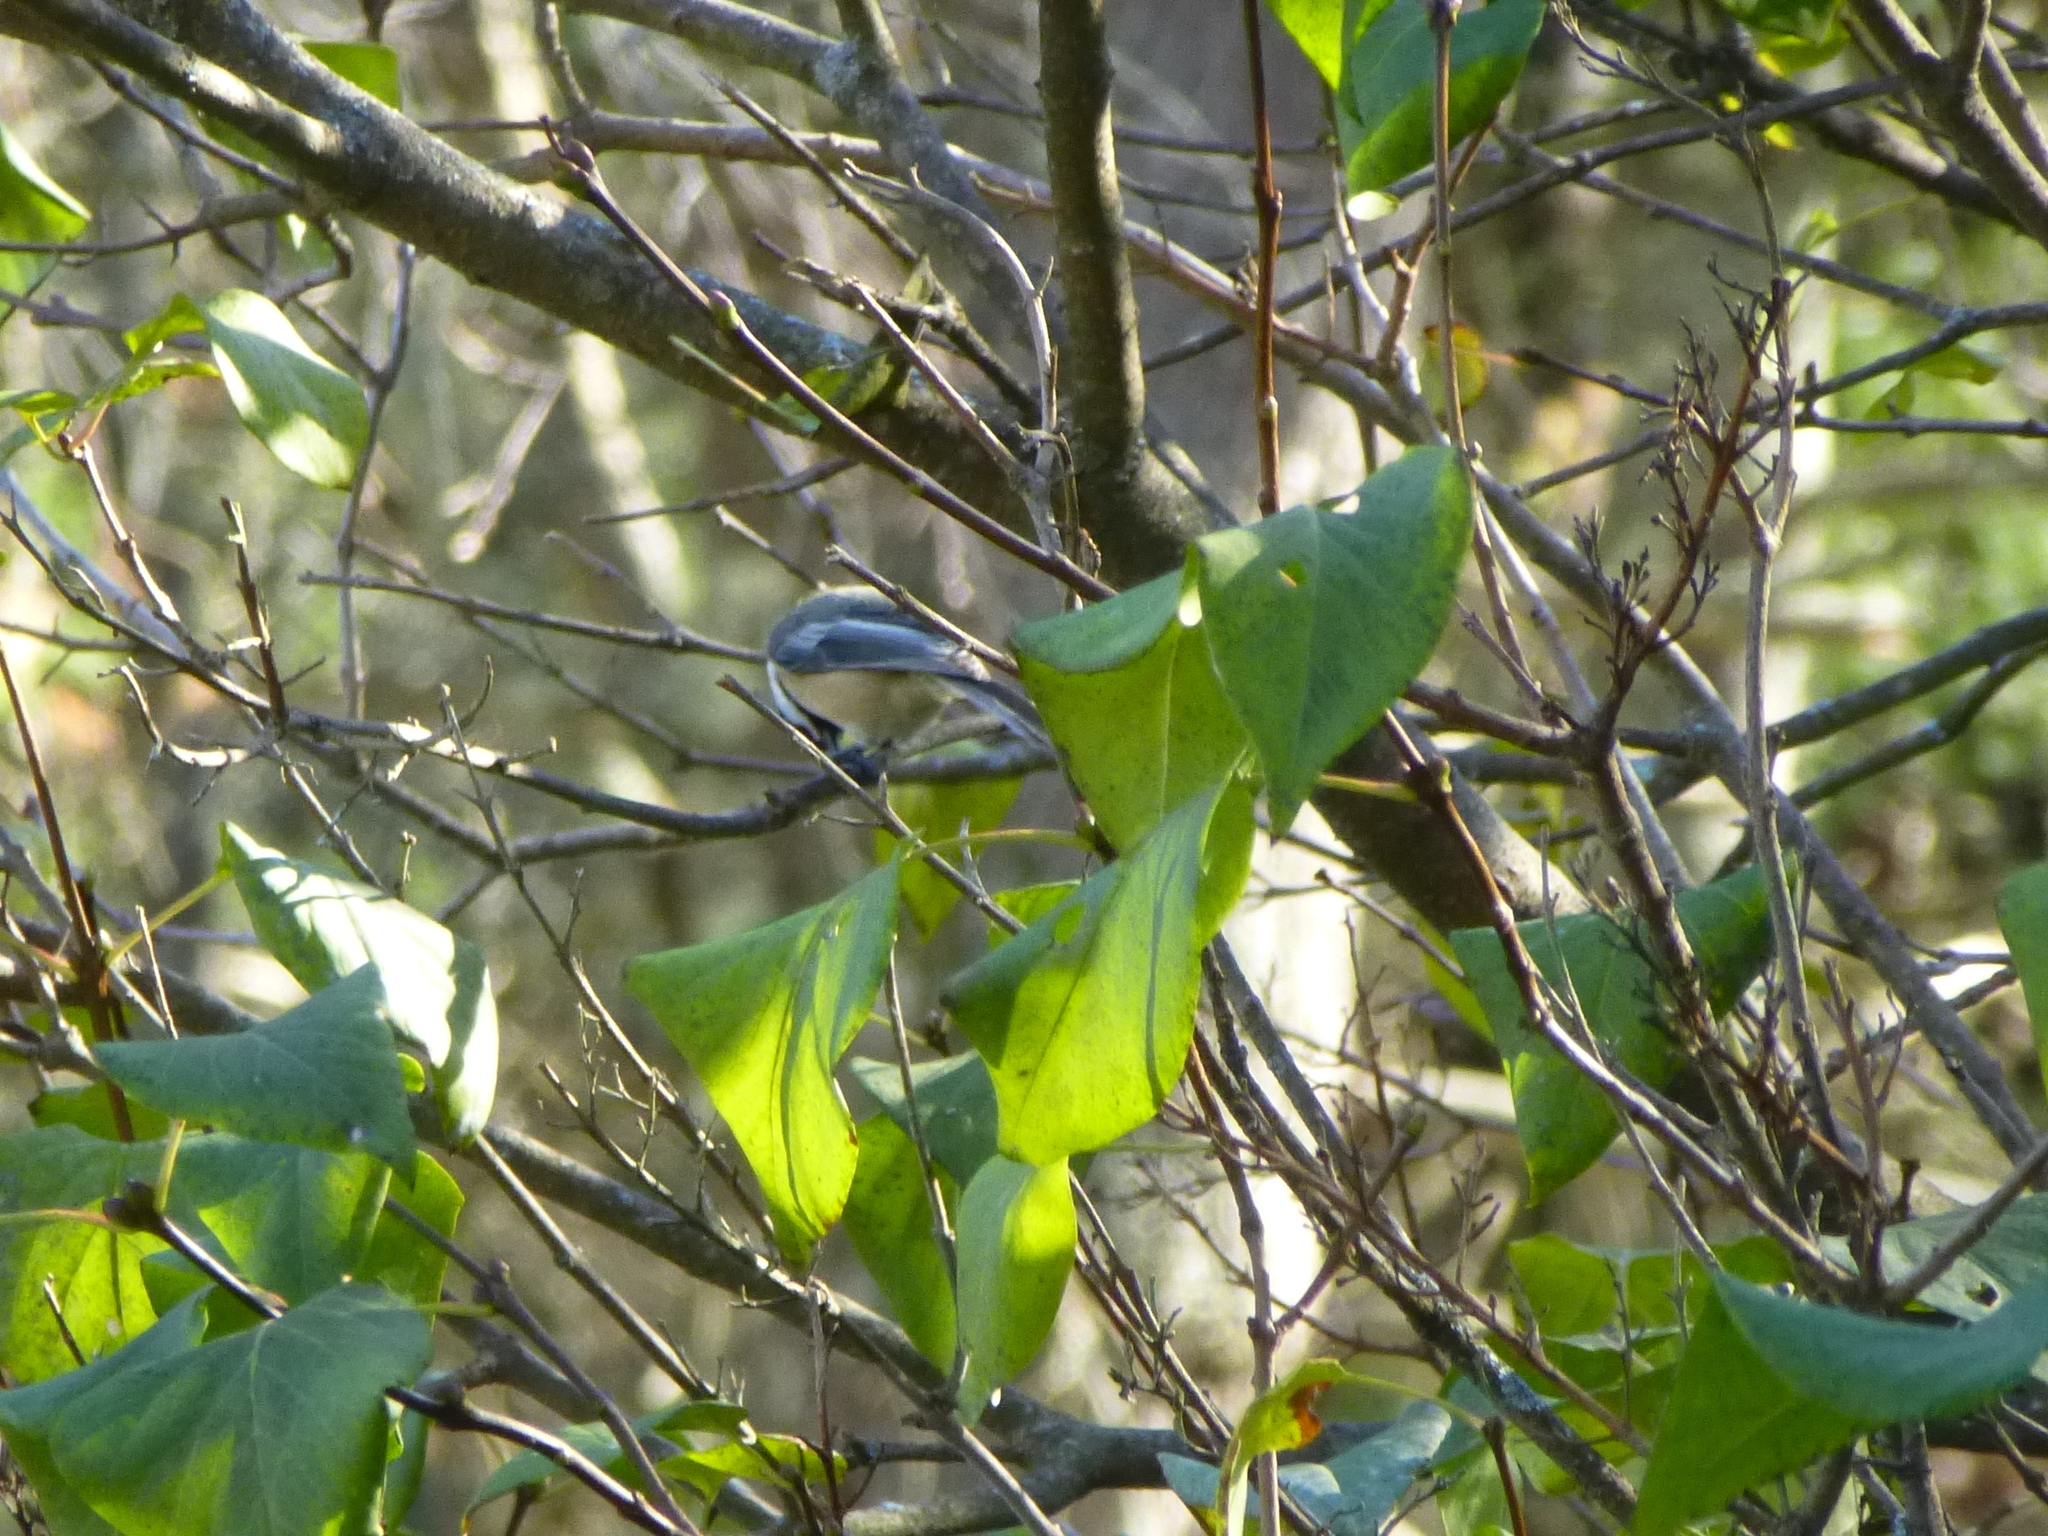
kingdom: Animalia
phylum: Chordata
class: Aves
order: Passeriformes
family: Paridae
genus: Poecile
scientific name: Poecile atricapillus
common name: Black-capped chickadee
